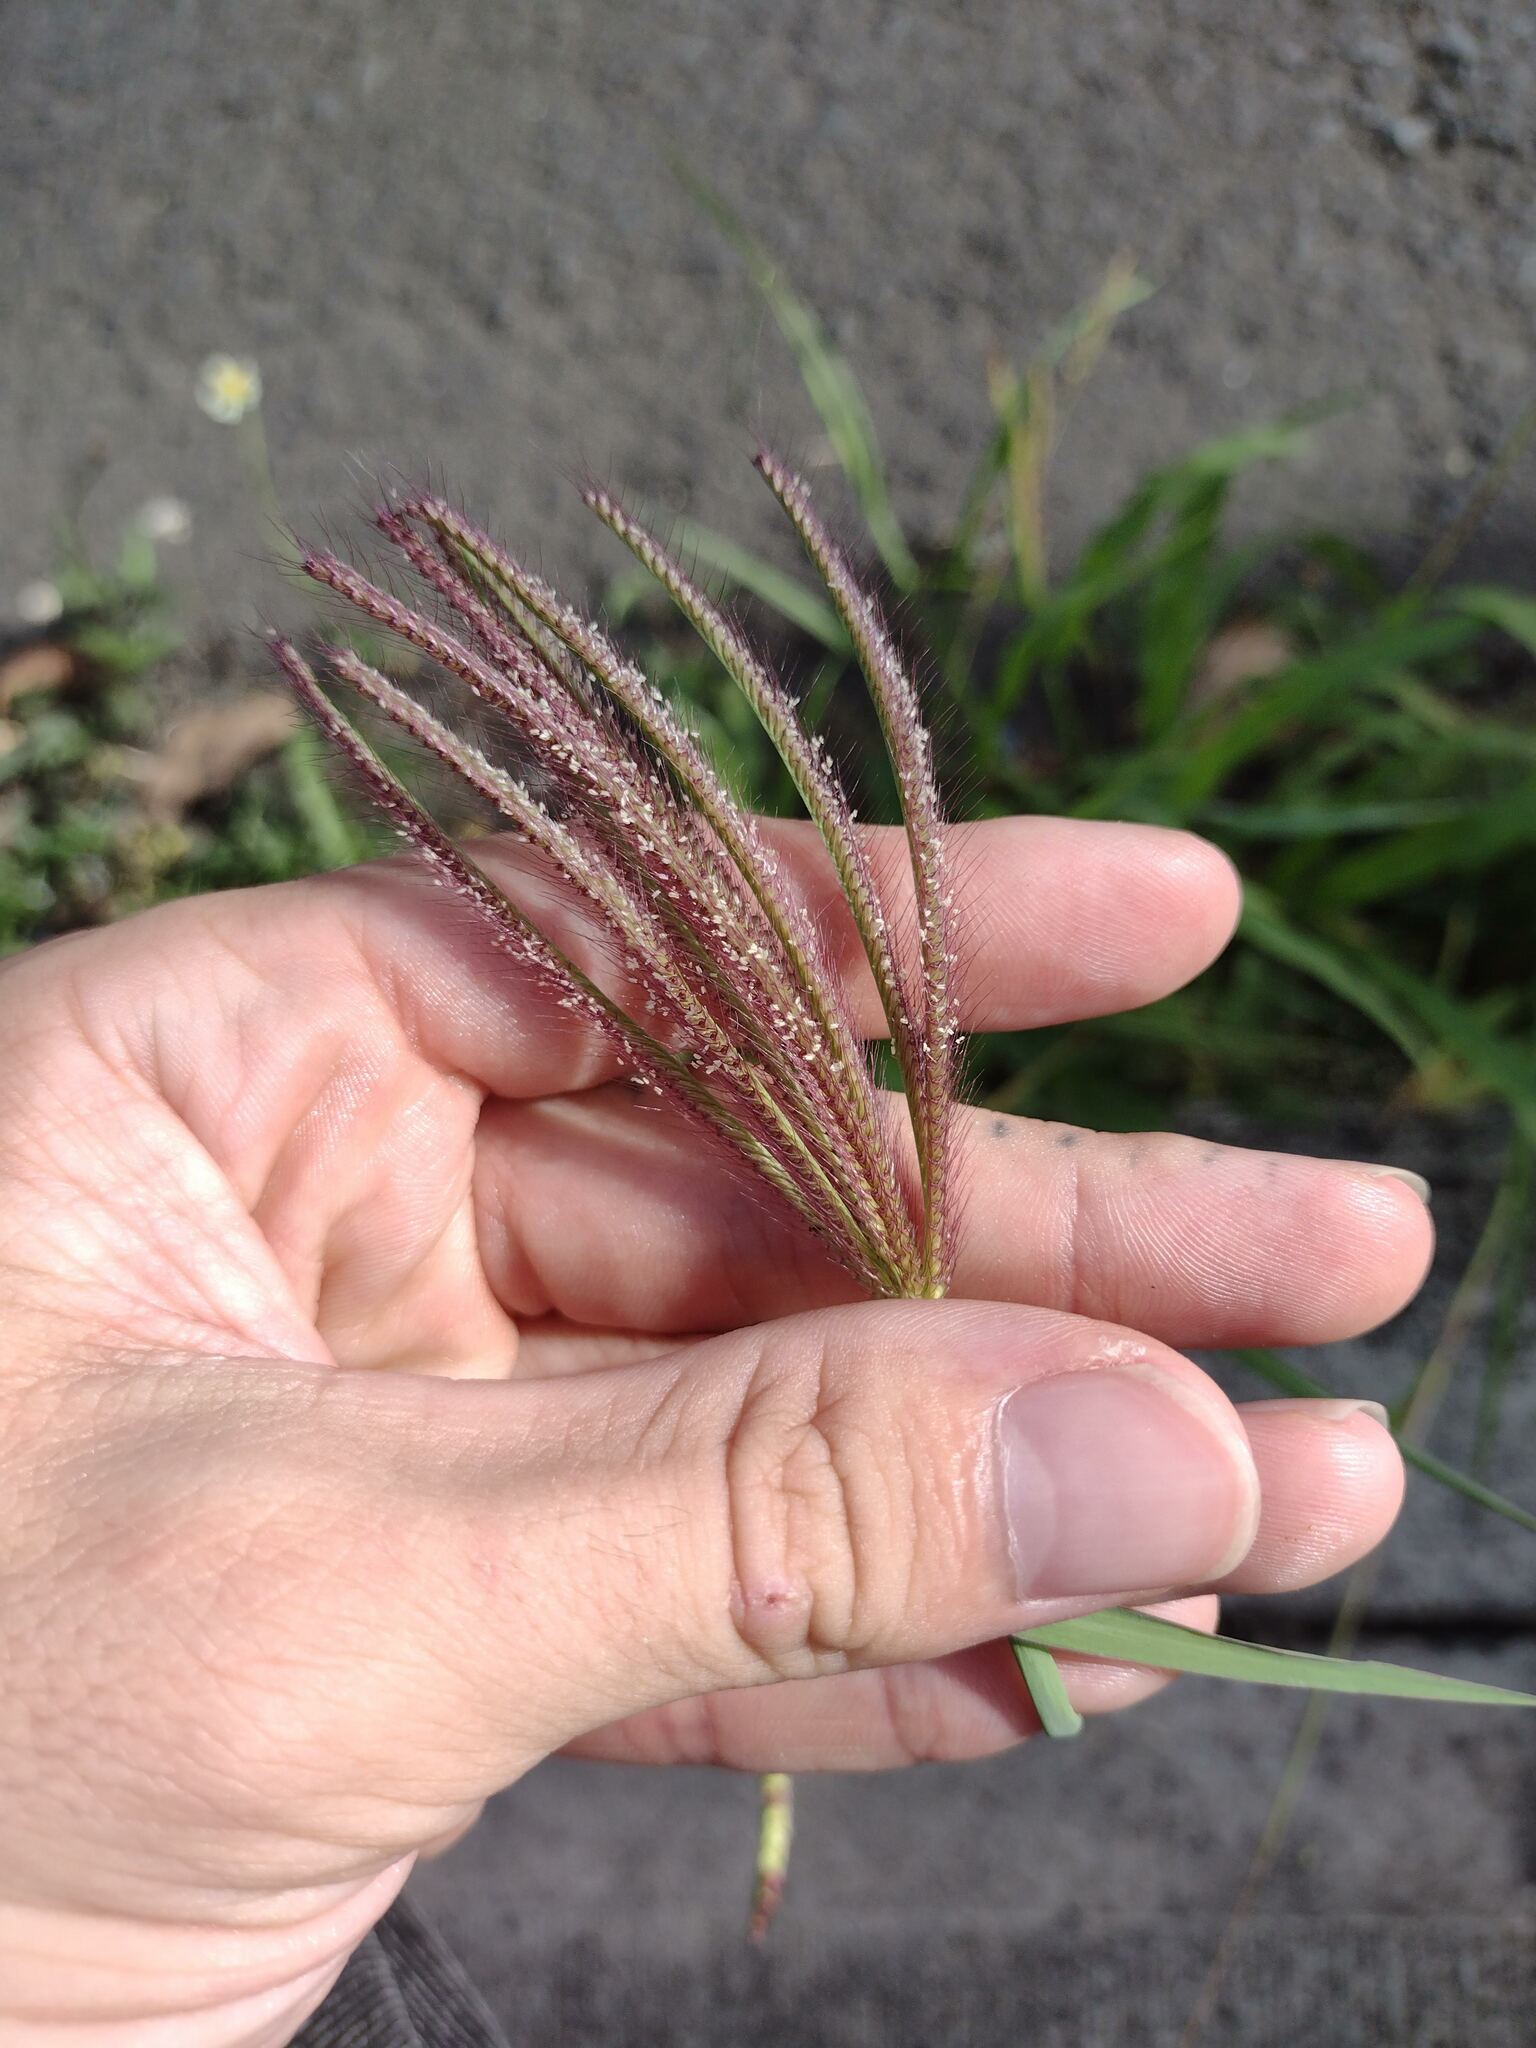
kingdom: Plantae
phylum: Tracheophyta
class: Liliopsida
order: Poales
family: Poaceae
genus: Chloris
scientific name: Chloris barbata
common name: Swollen fingergrass
